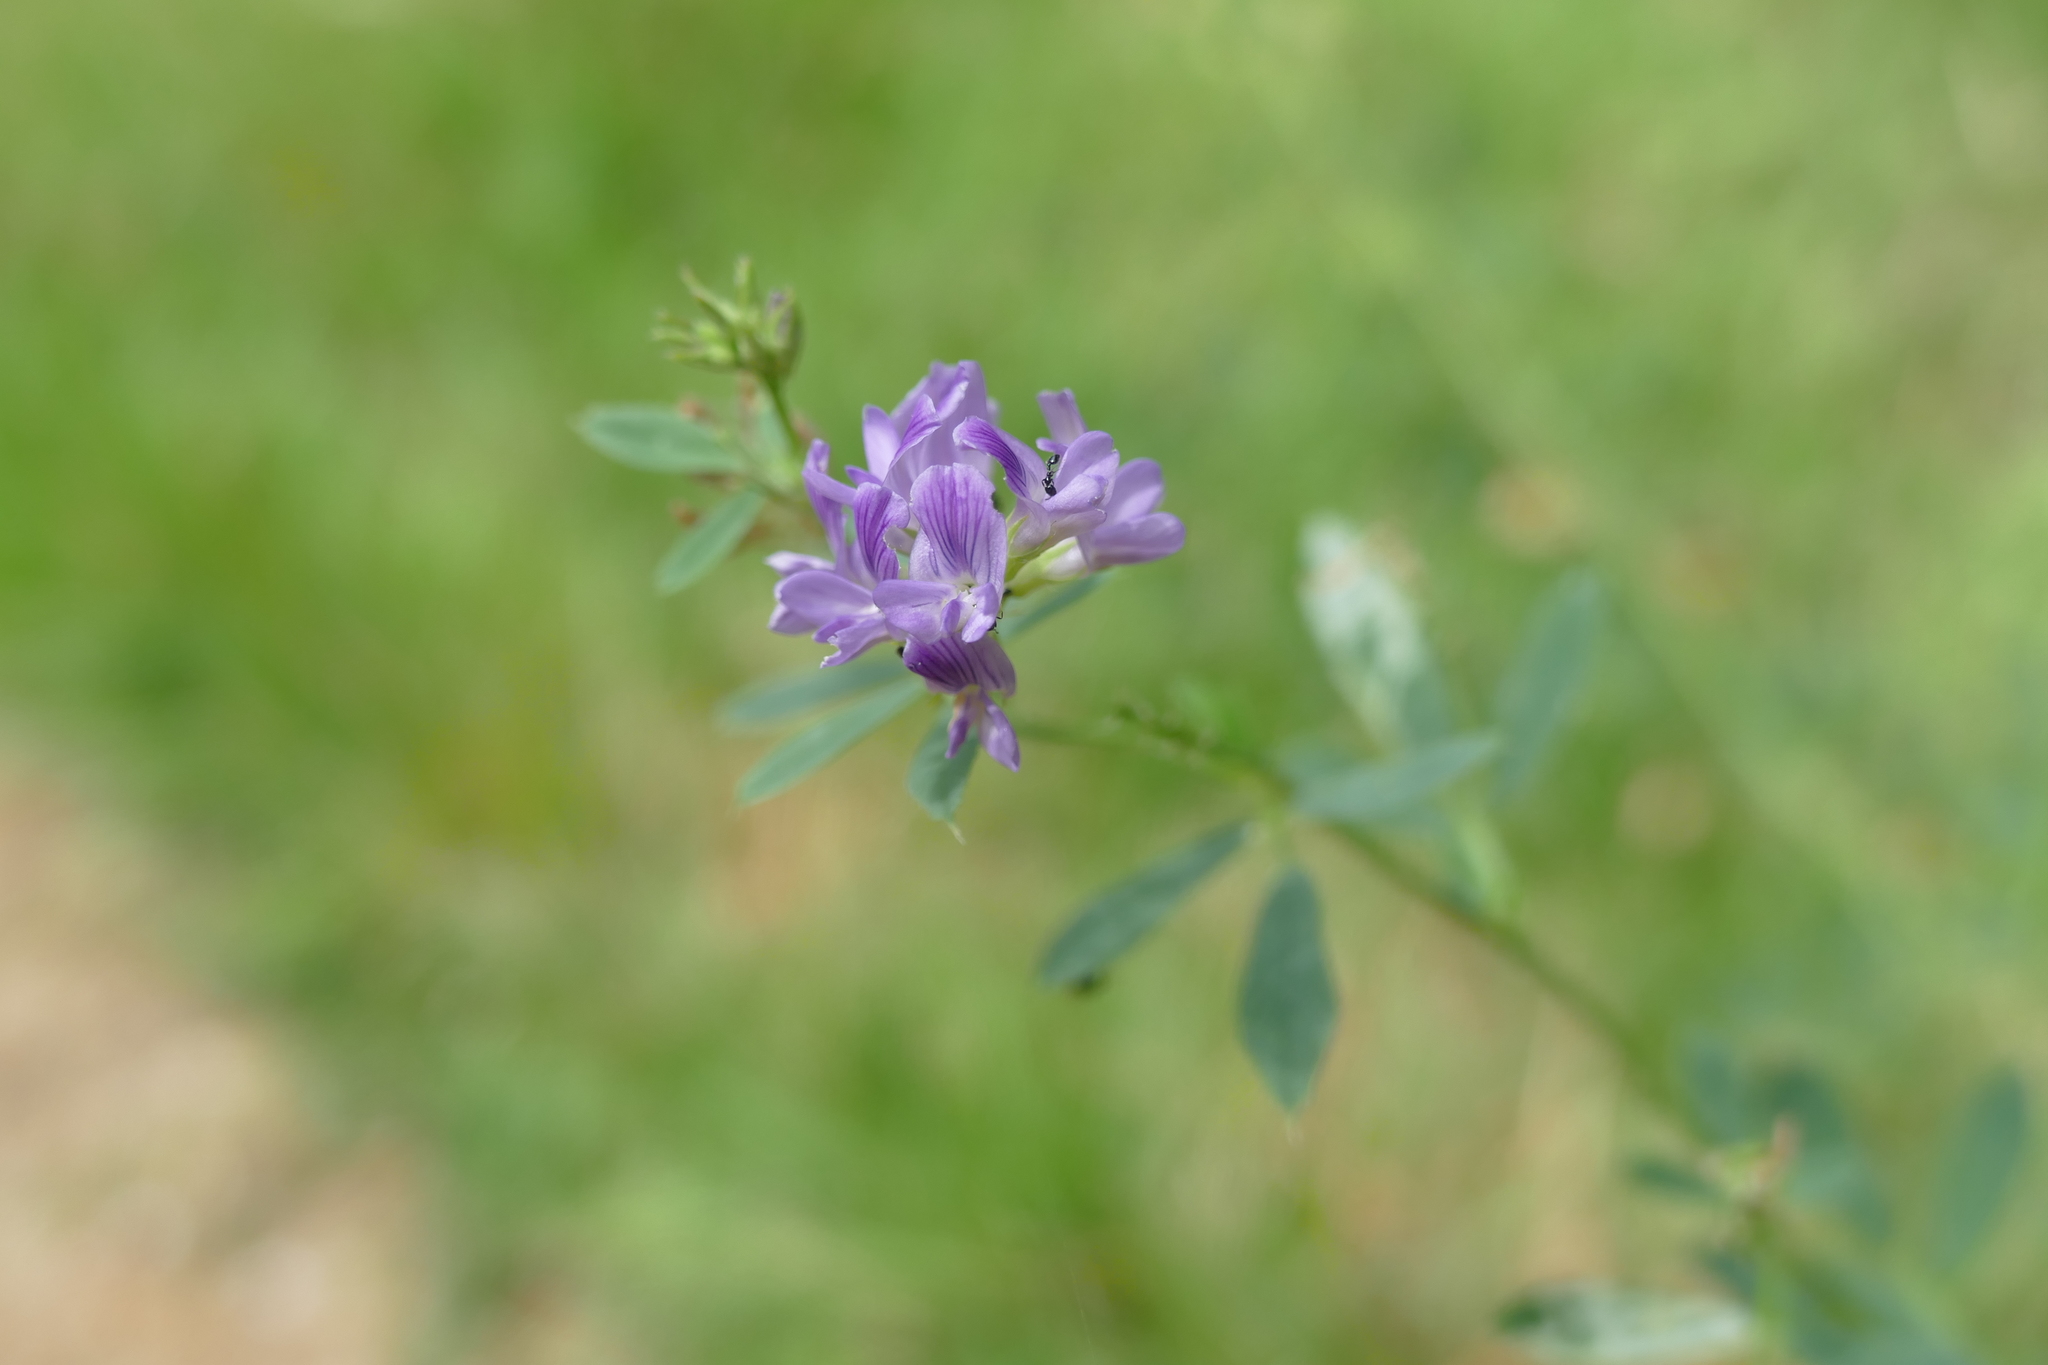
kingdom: Plantae
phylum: Tracheophyta
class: Magnoliopsida
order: Fabales
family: Fabaceae
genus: Medicago
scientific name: Medicago sativa
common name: Alfalfa
